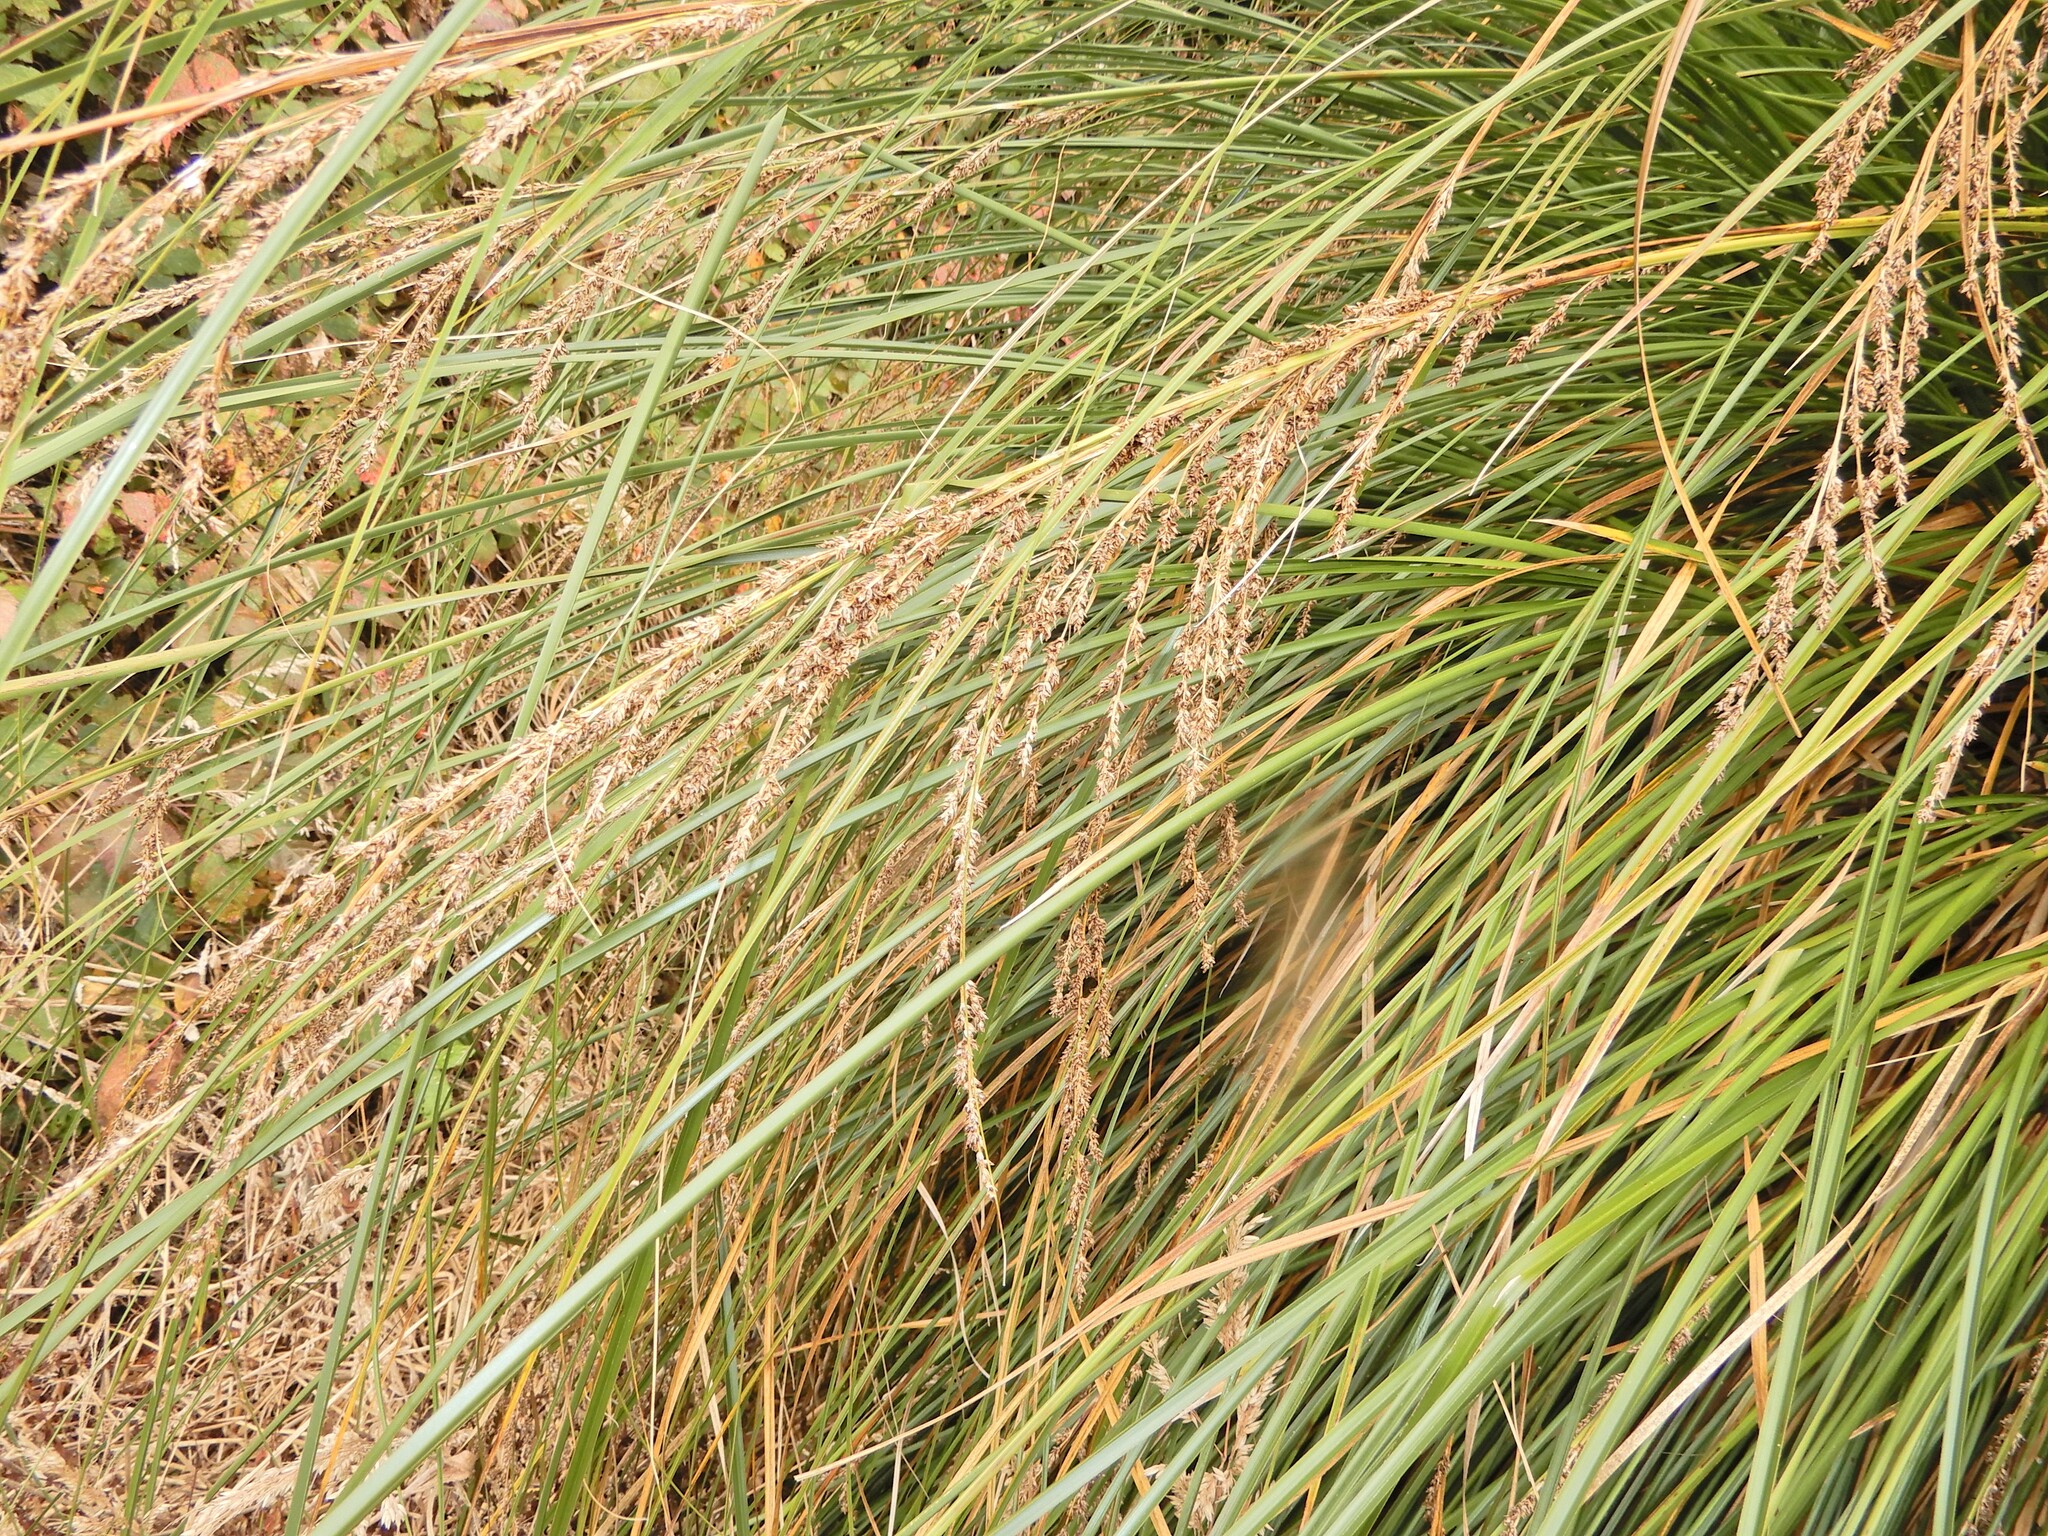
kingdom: Plantae
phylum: Tracheophyta
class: Liliopsida
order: Poales
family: Cyperaceae
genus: Carex
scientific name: Carex secta
